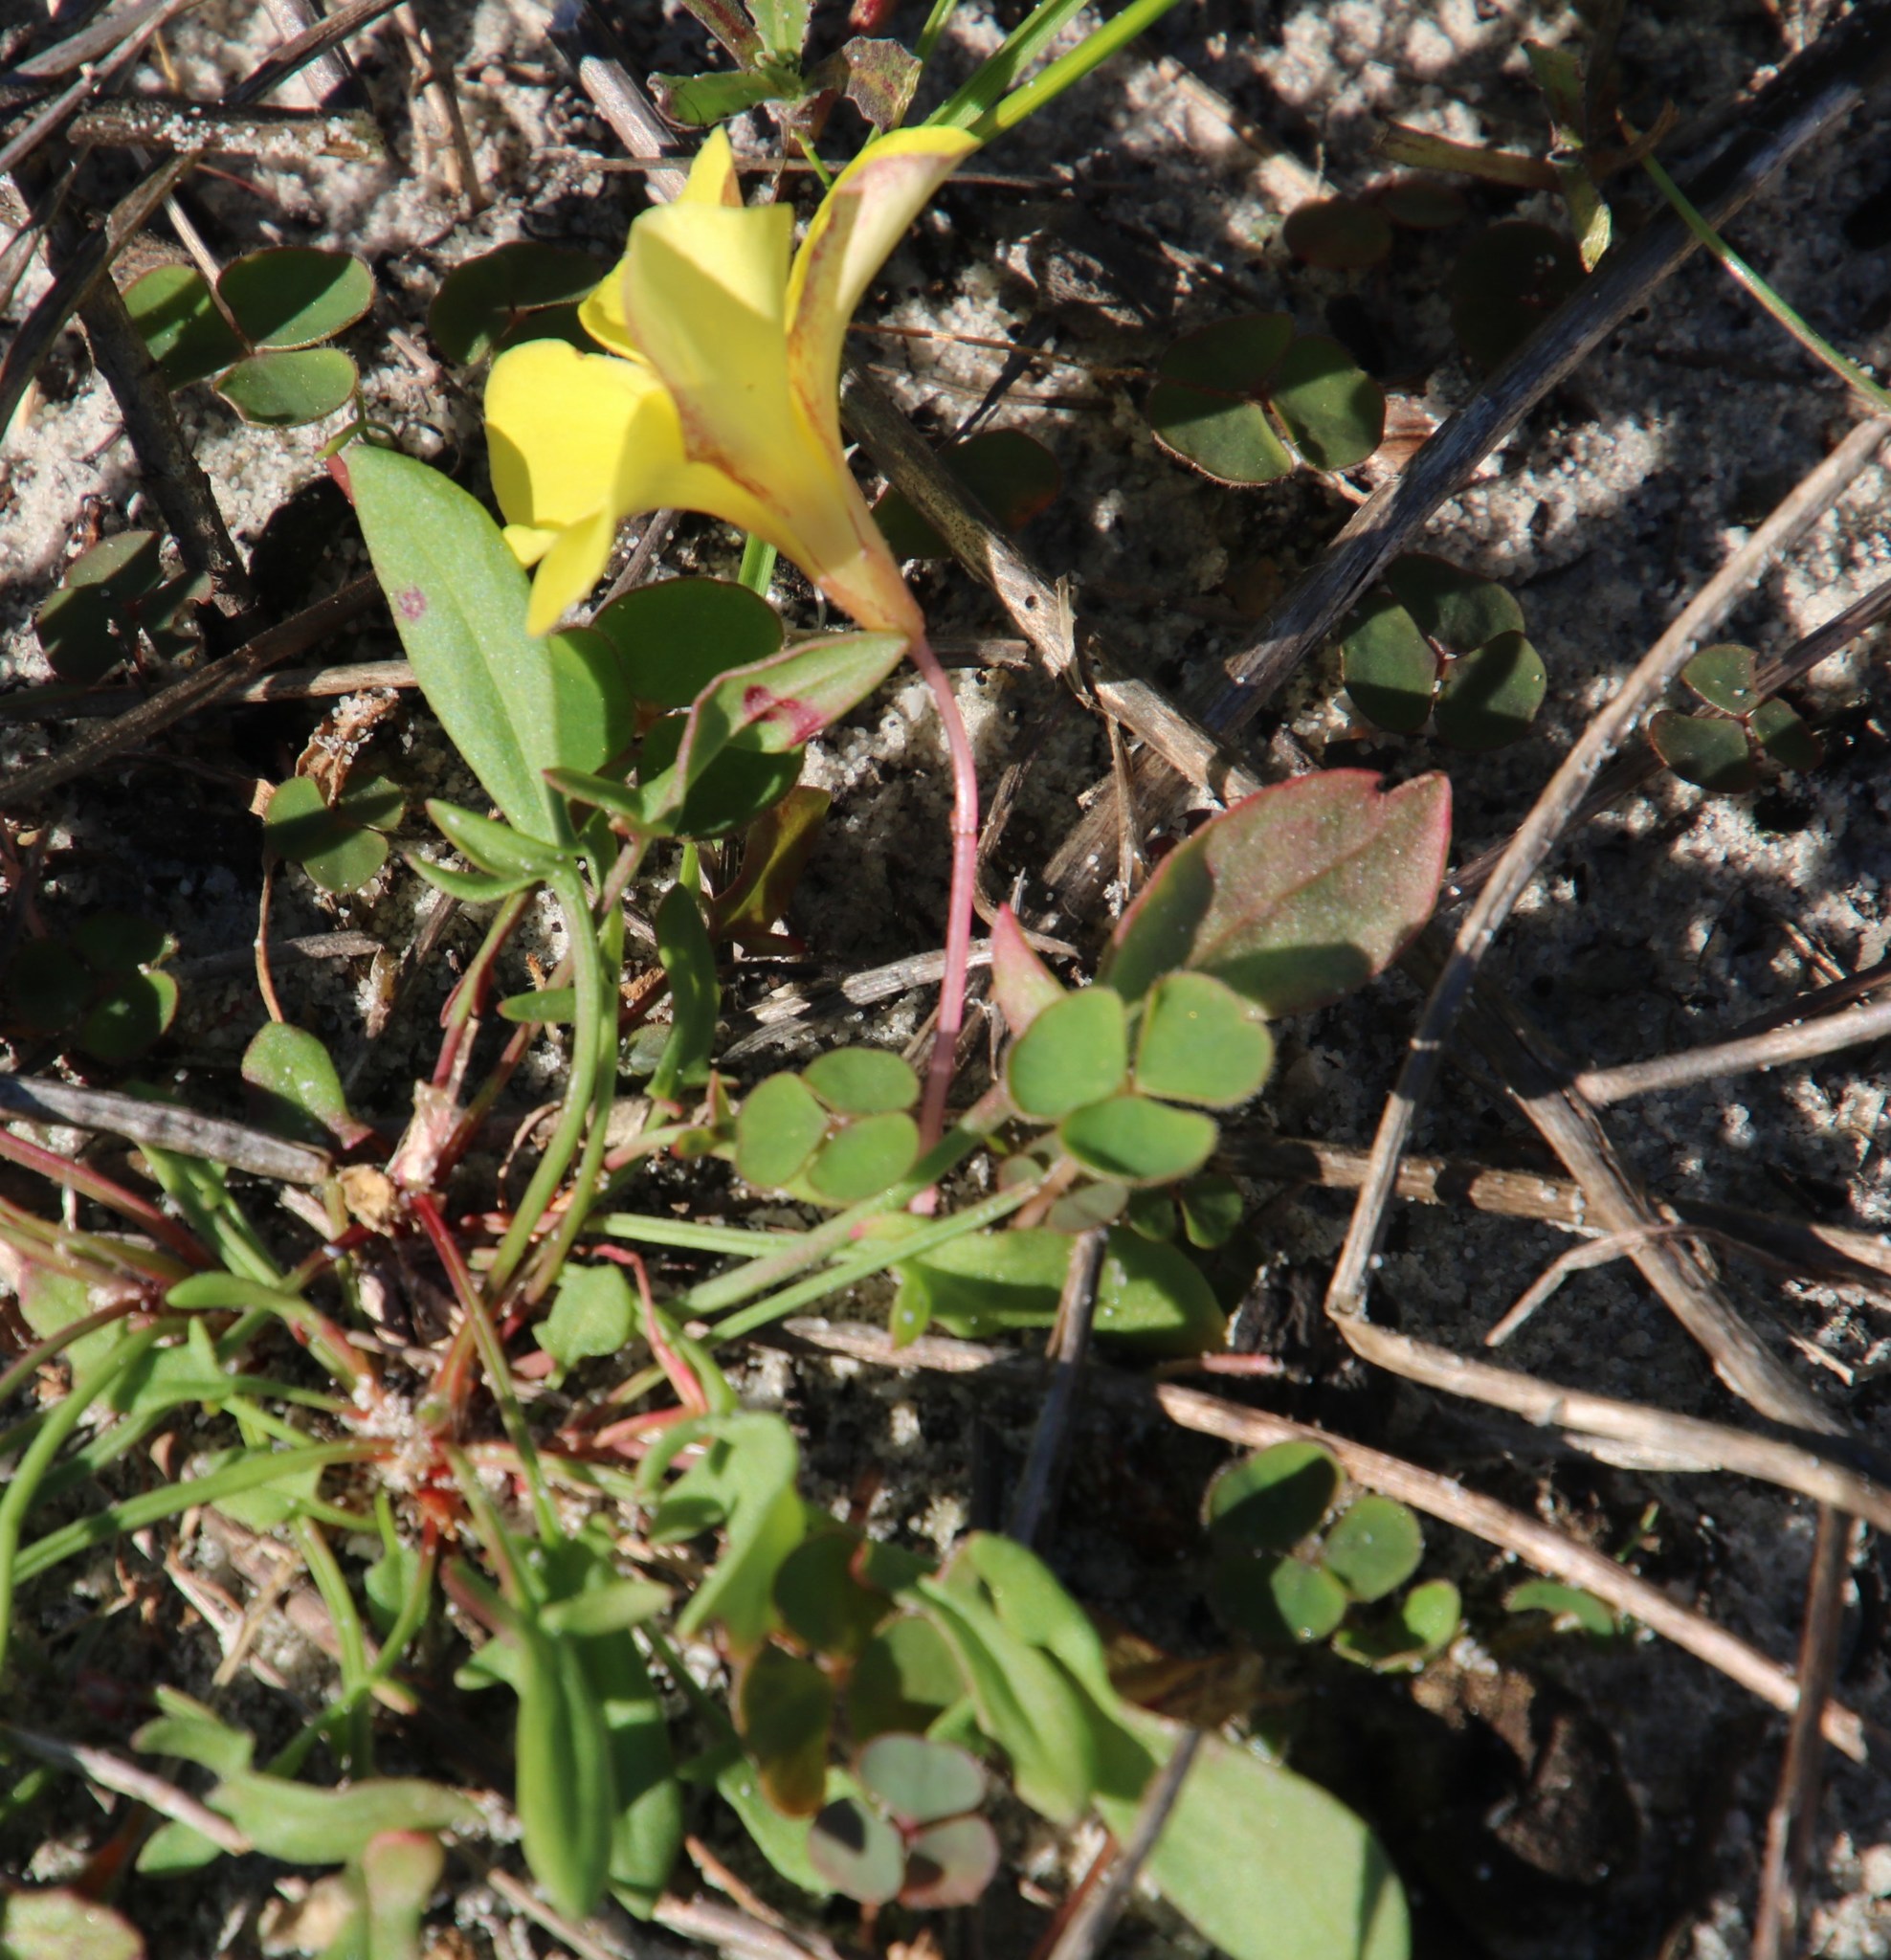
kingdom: Plantae
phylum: Tracheophyta
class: Magnoliopsida
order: Oxalidales
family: Oxalidaceae
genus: Oxalis
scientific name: Oxalis luteola
